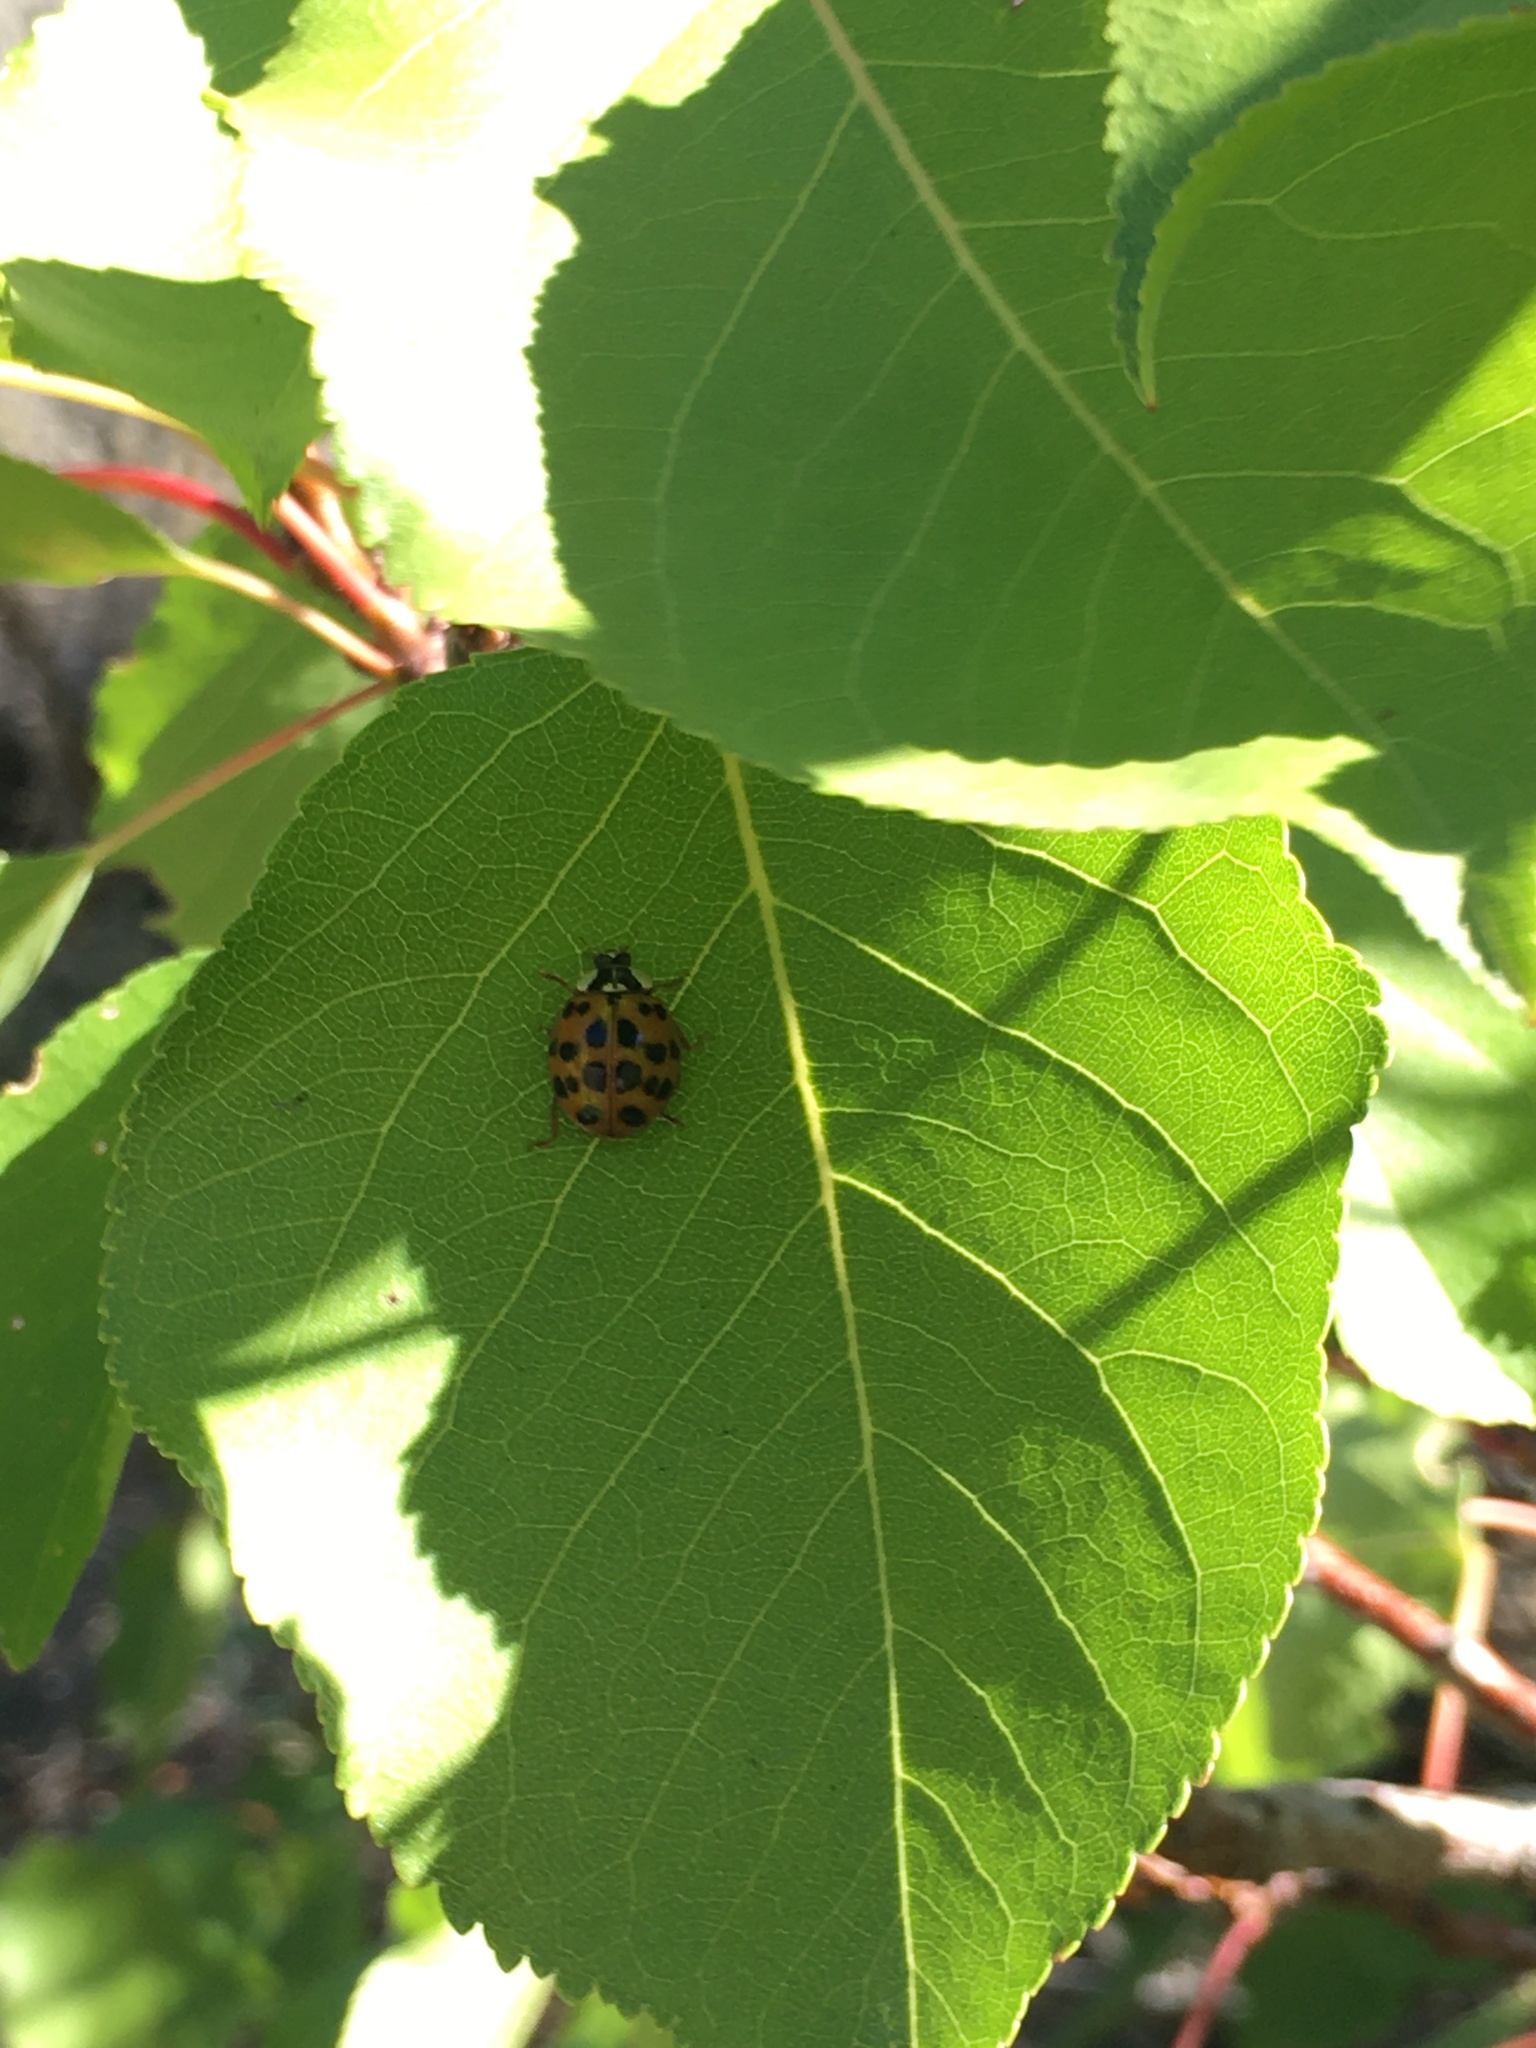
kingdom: Animalia
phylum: Arthropoda
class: Insecta
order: Coleoptera
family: Coccinellidae
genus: Harmonia
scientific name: Harmonia axyridis
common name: Harlequin ladybird
